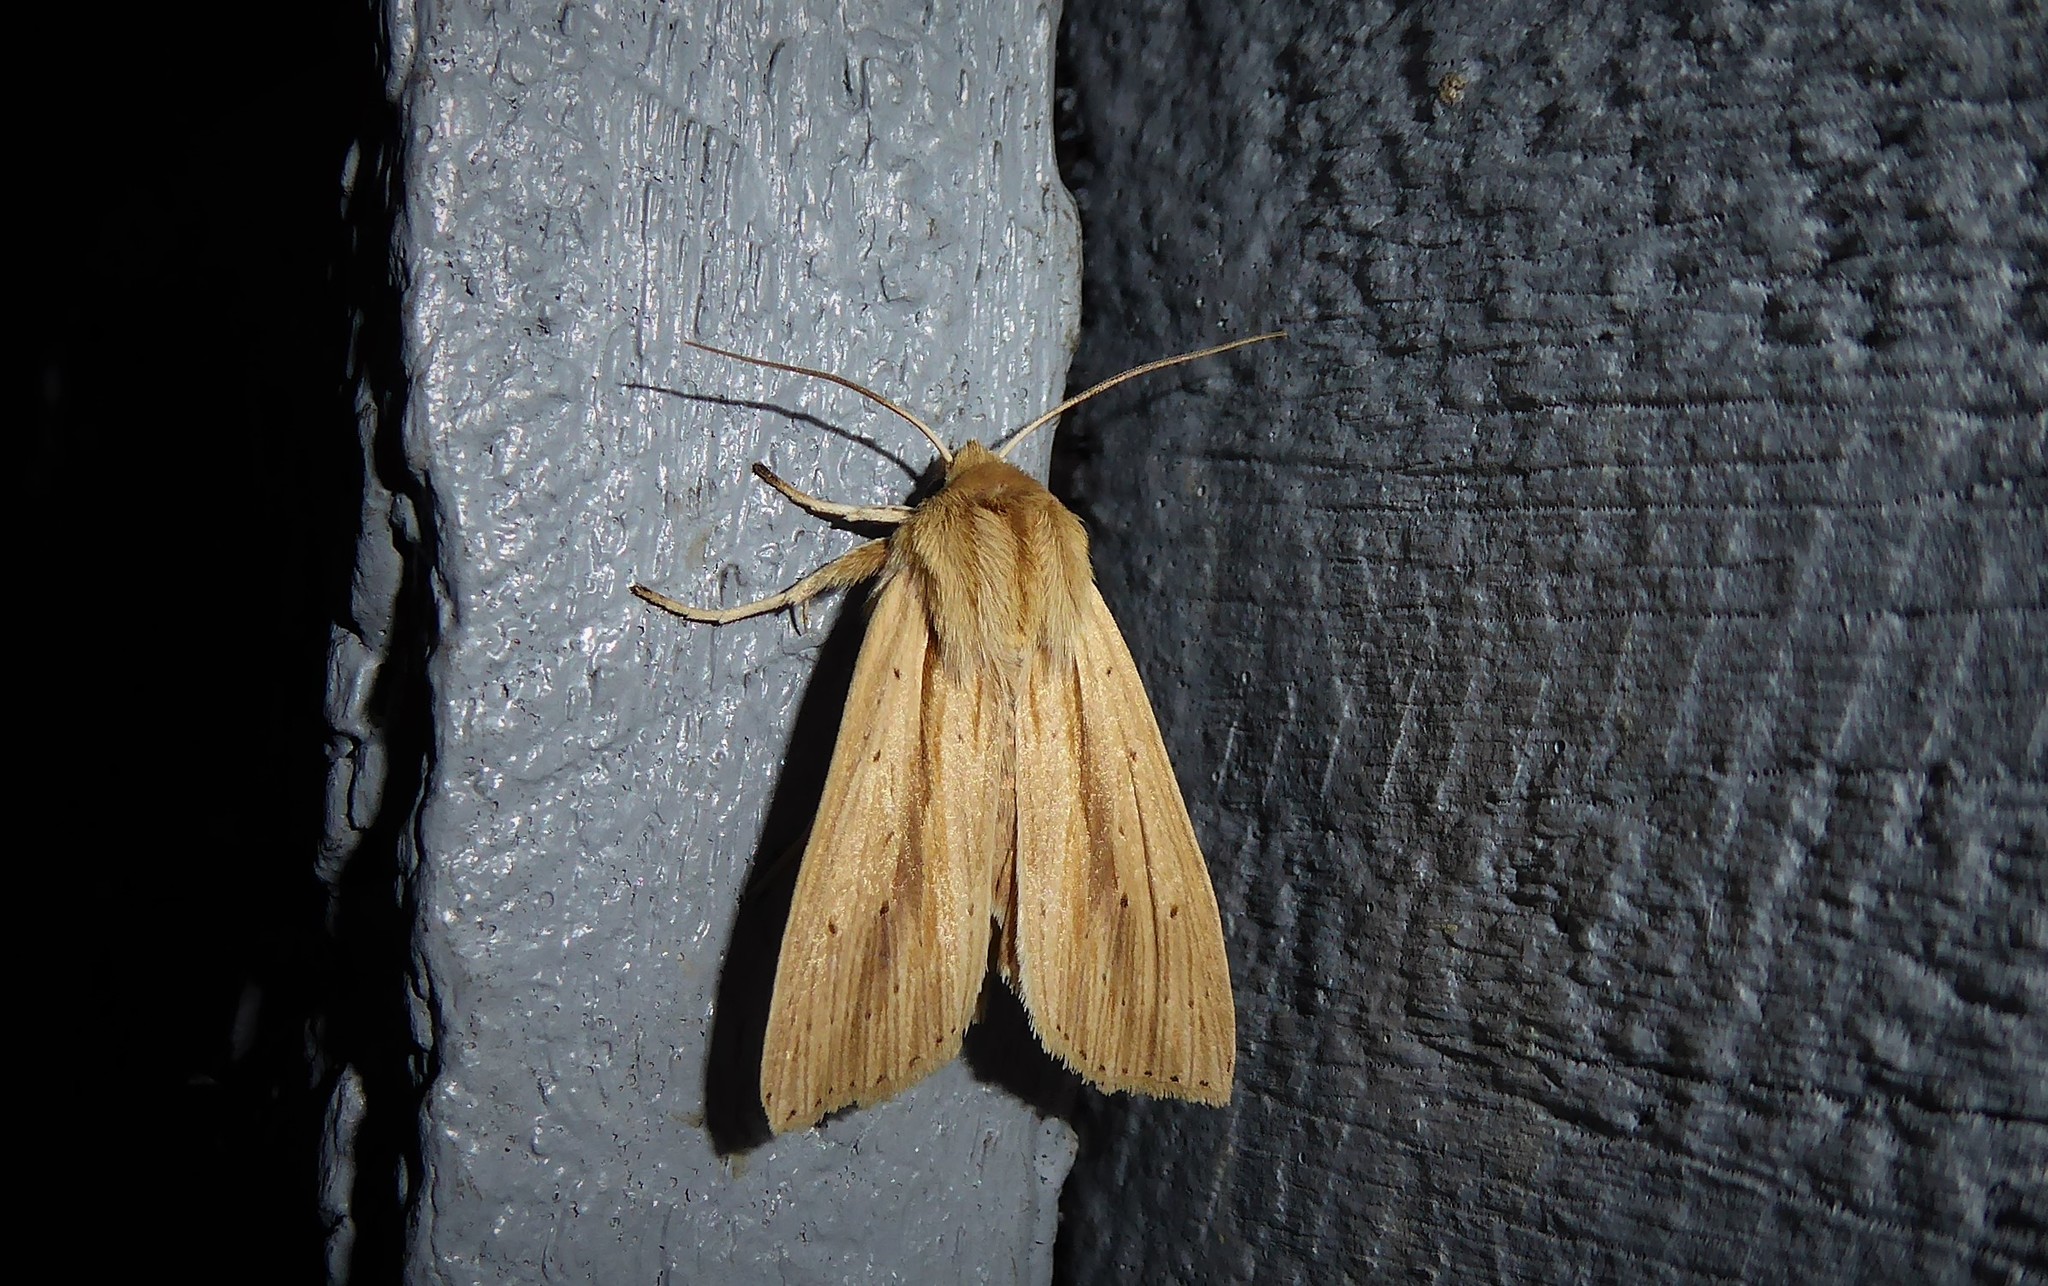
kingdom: Animalia
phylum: Arthropoda
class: Insecta
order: Lepidoptera
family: Noctuidae
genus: Ichneutica
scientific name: Ichneutica semivittata
